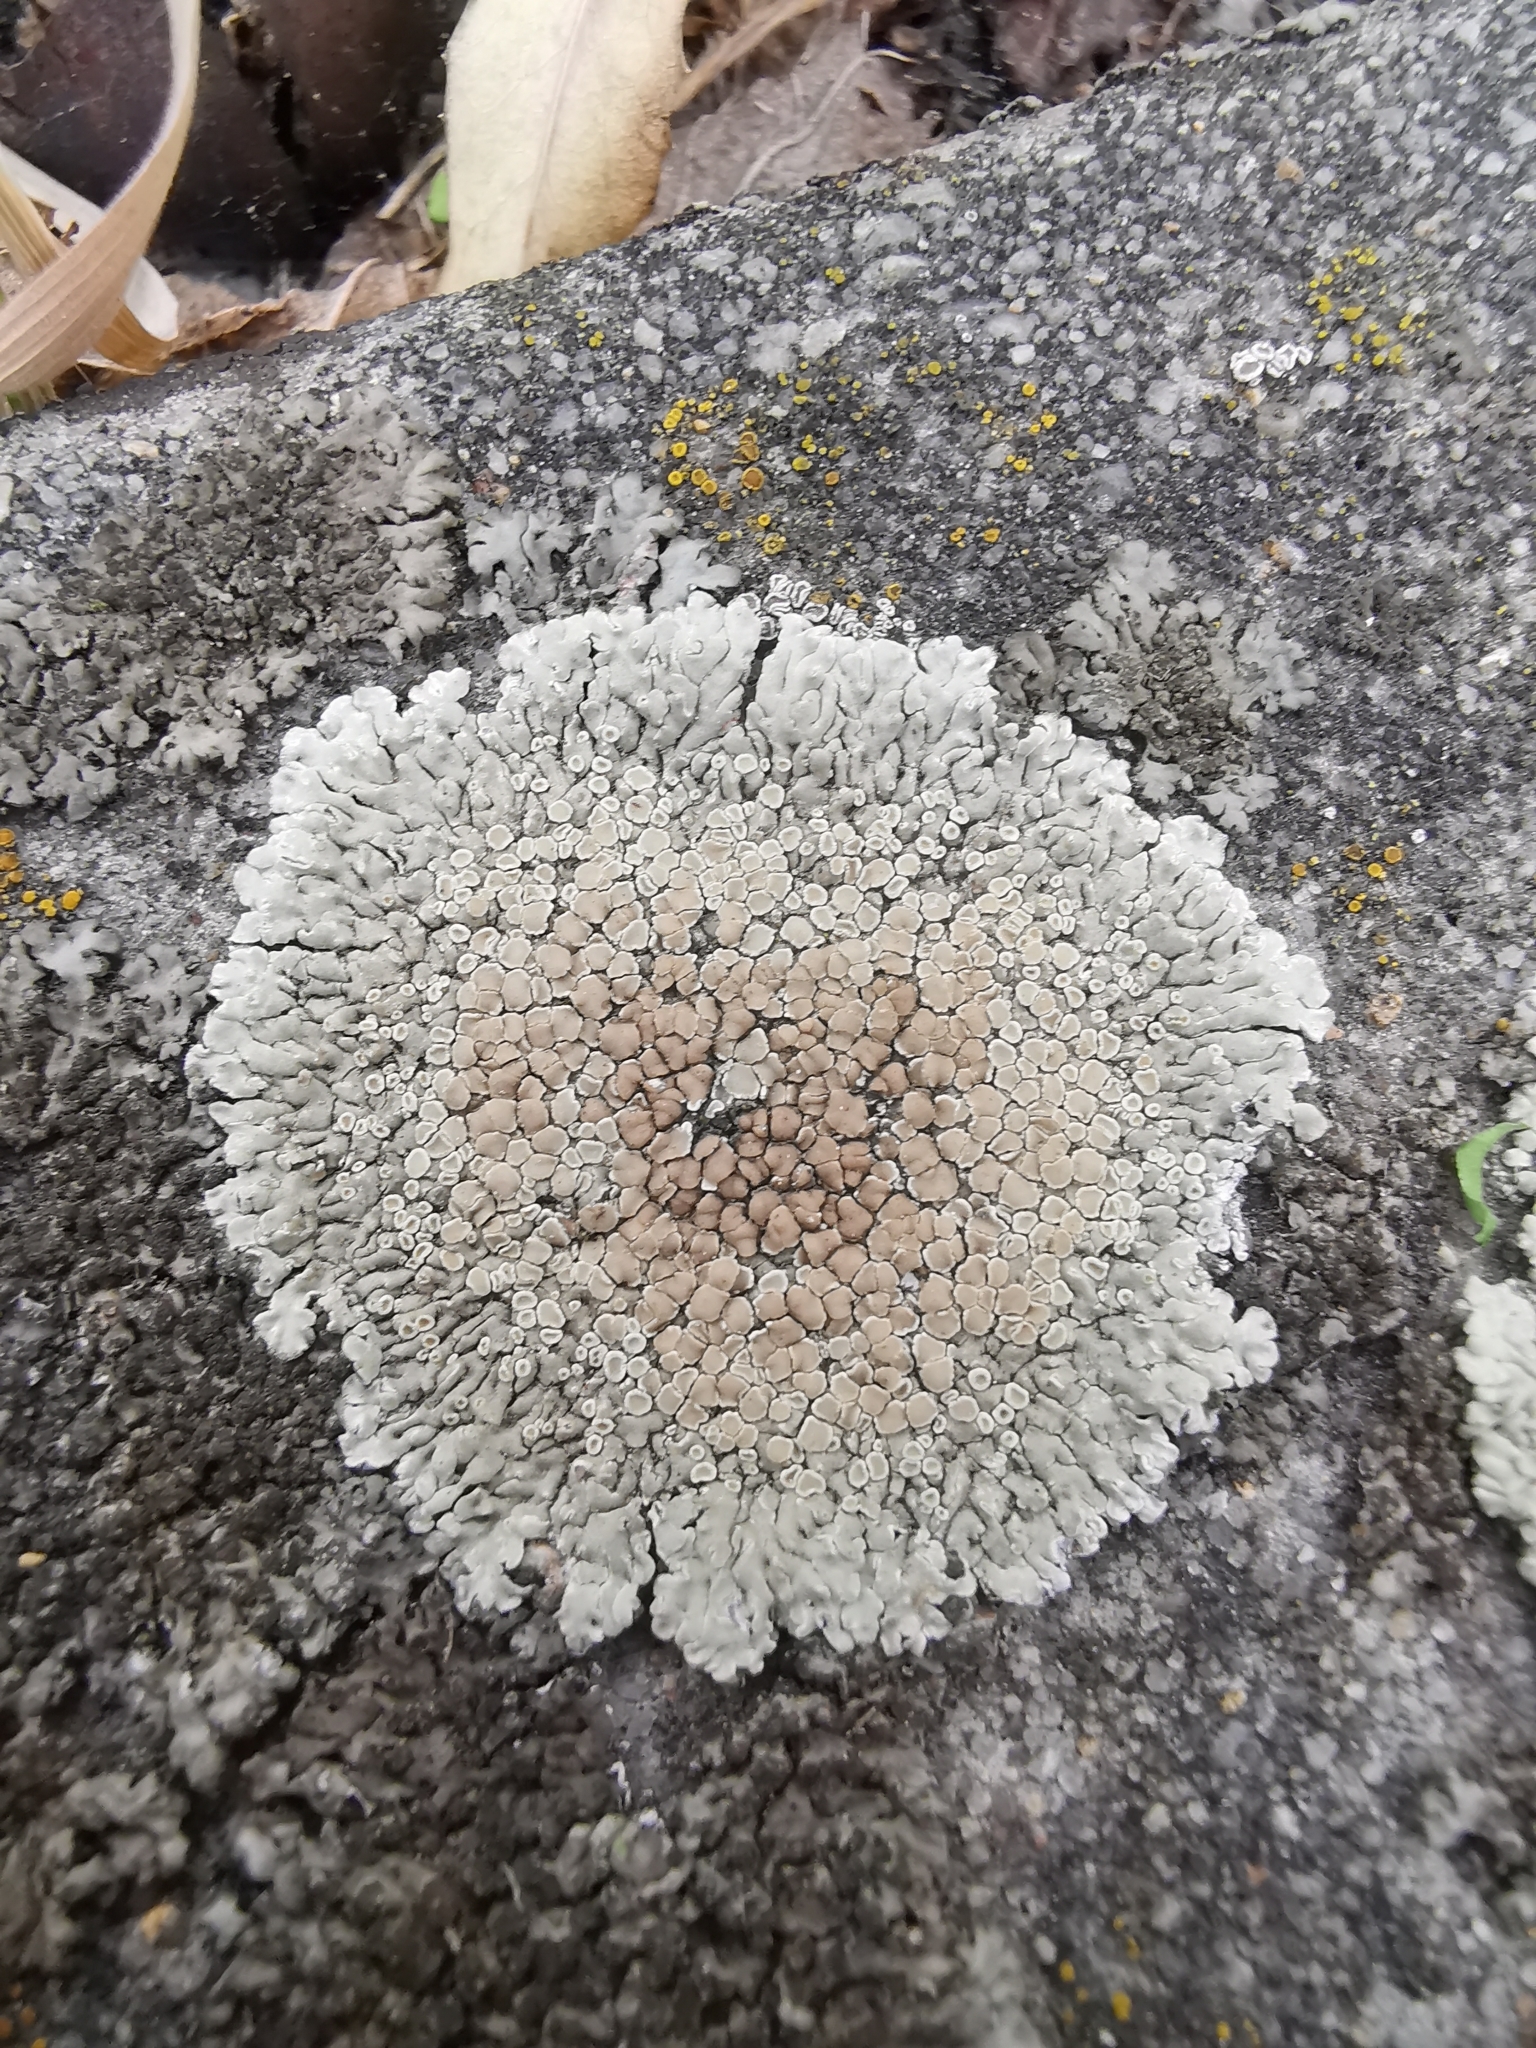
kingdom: Fungi
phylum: Ascomycota
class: Lecanoromycetes
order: Lecanorales
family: Lecanoraceae
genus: Protoparmeliopsis
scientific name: Protoparmeliopsis muralis
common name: Stonewall rim lichen
